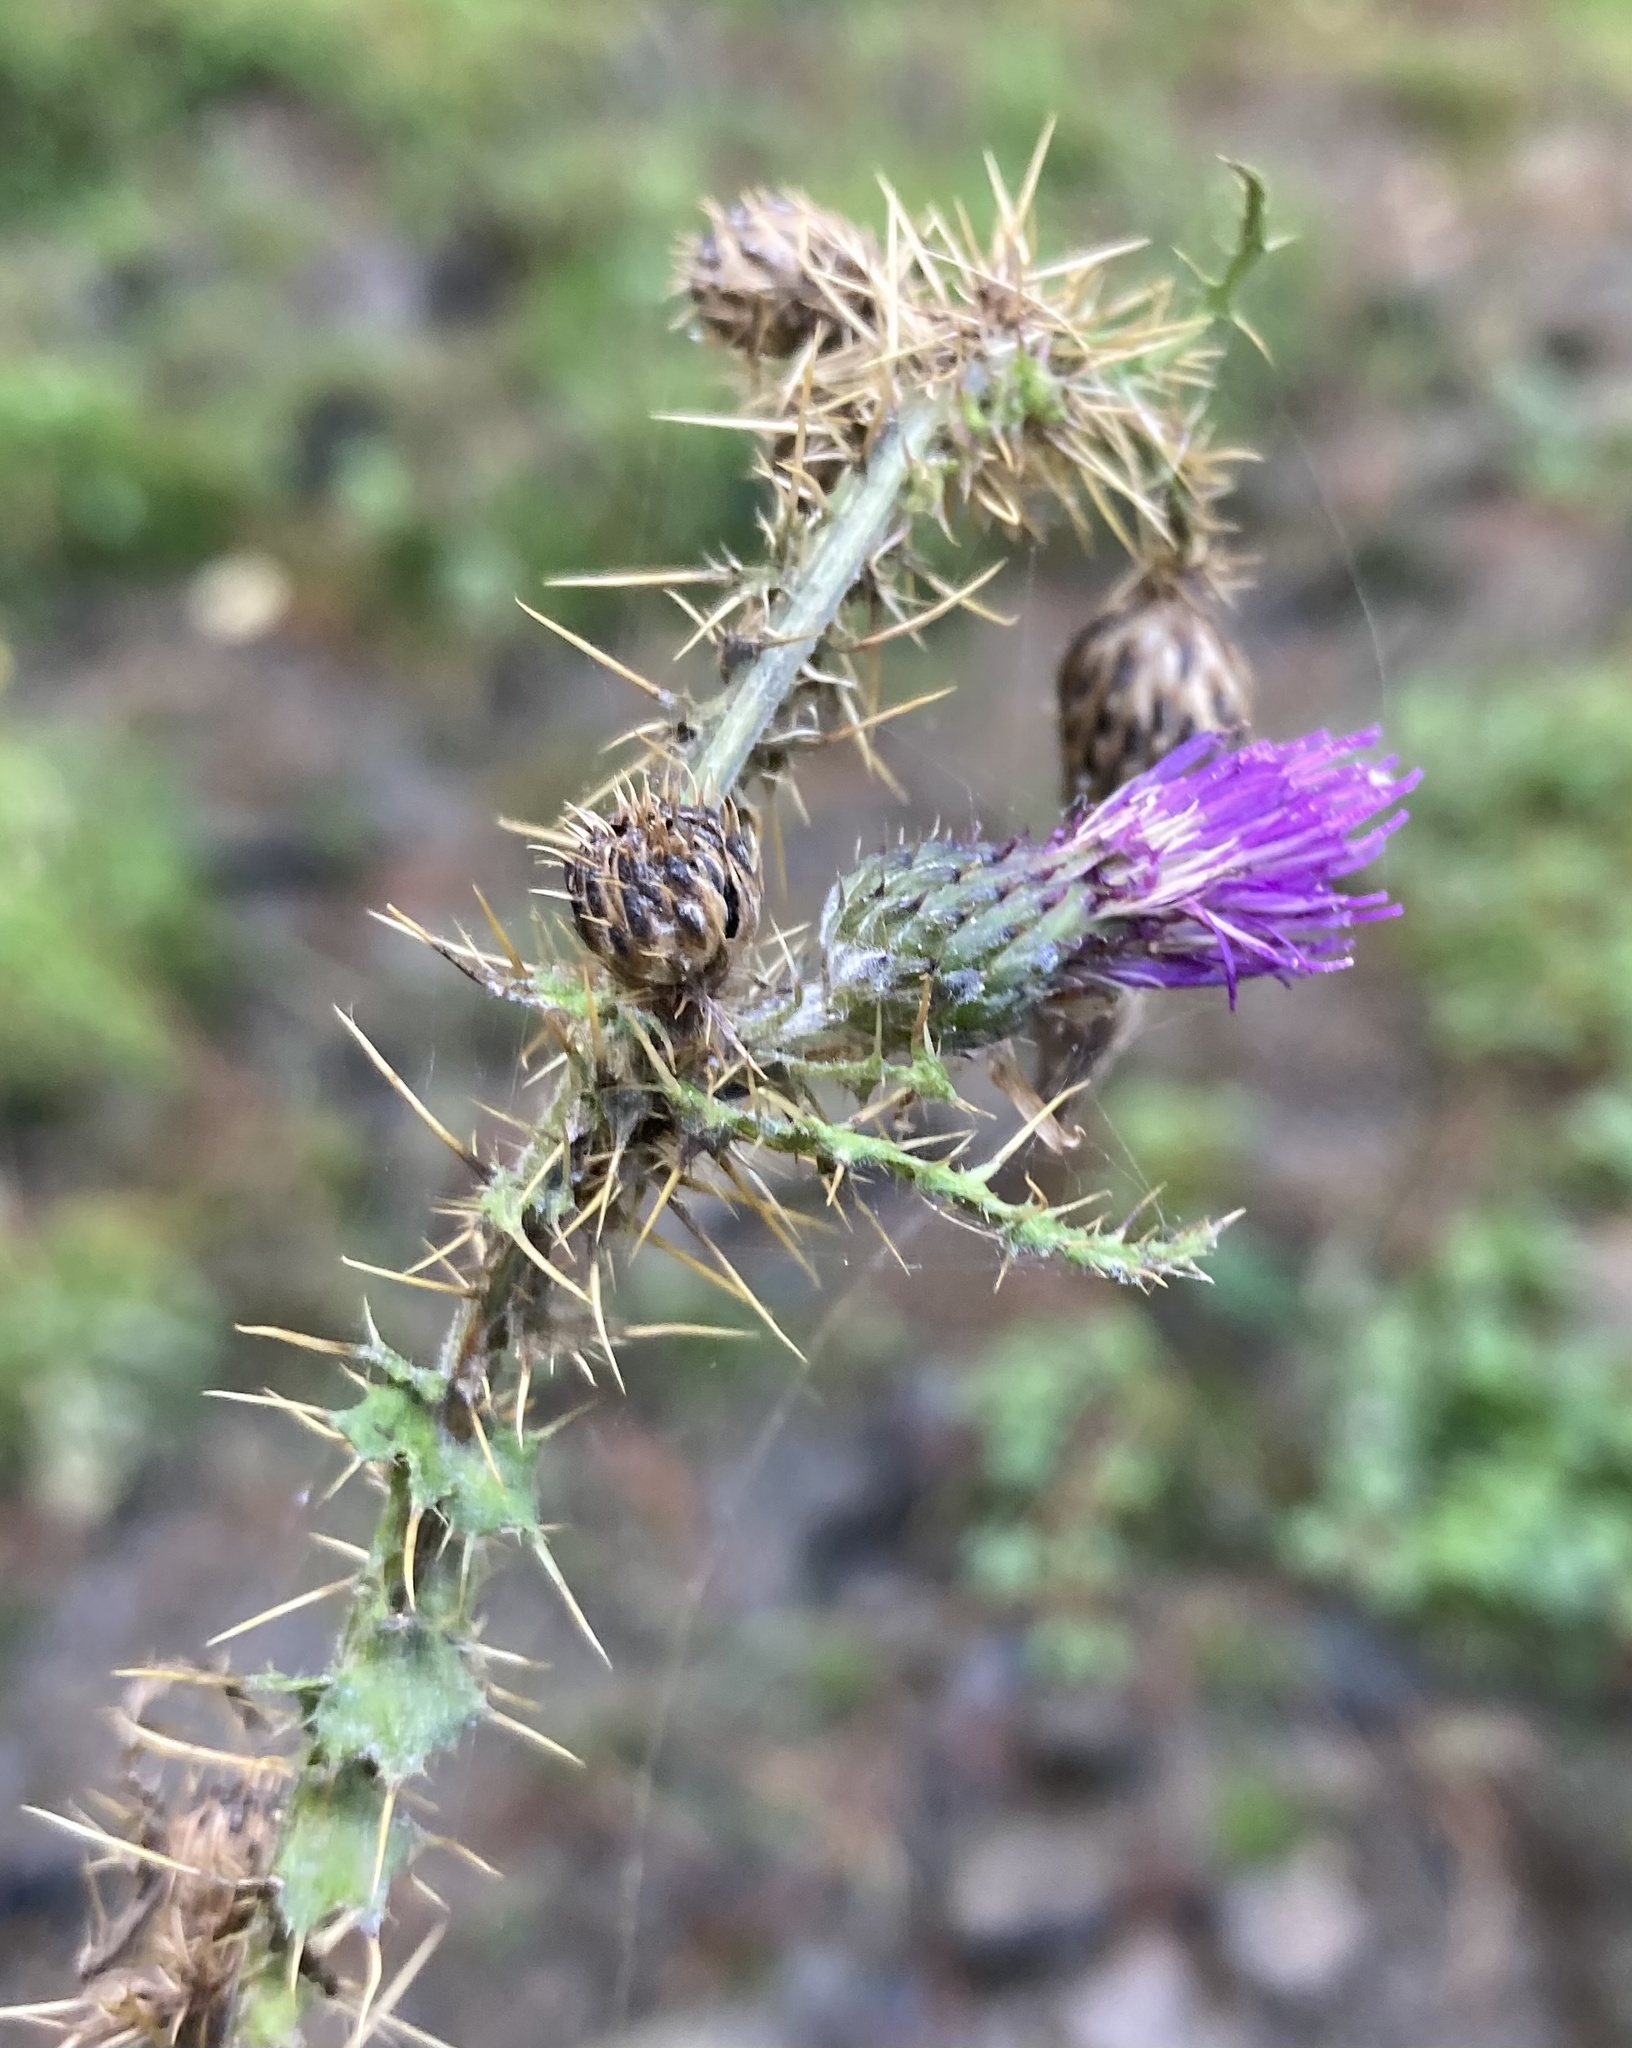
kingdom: Plantae
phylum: Tracheophyta
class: Magnoliopsida
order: Asterales
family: Asteraceae
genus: Cirsium
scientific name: Cirsium palustre
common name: Marsh thistle
